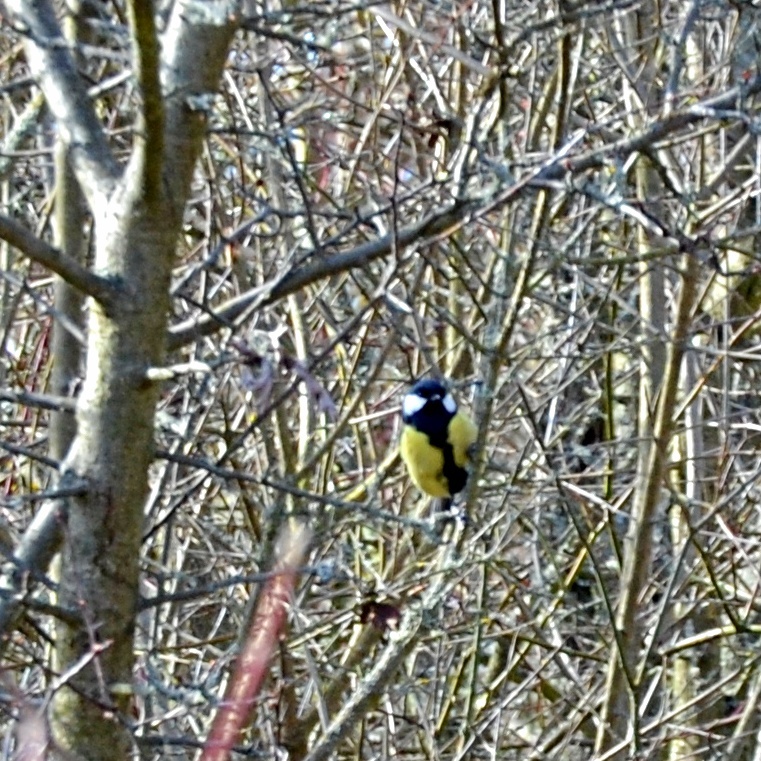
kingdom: Animalia
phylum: Chordata
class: Aves
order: Passeriformes
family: Paridae
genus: Parus
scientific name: Parus major
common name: Great tit
